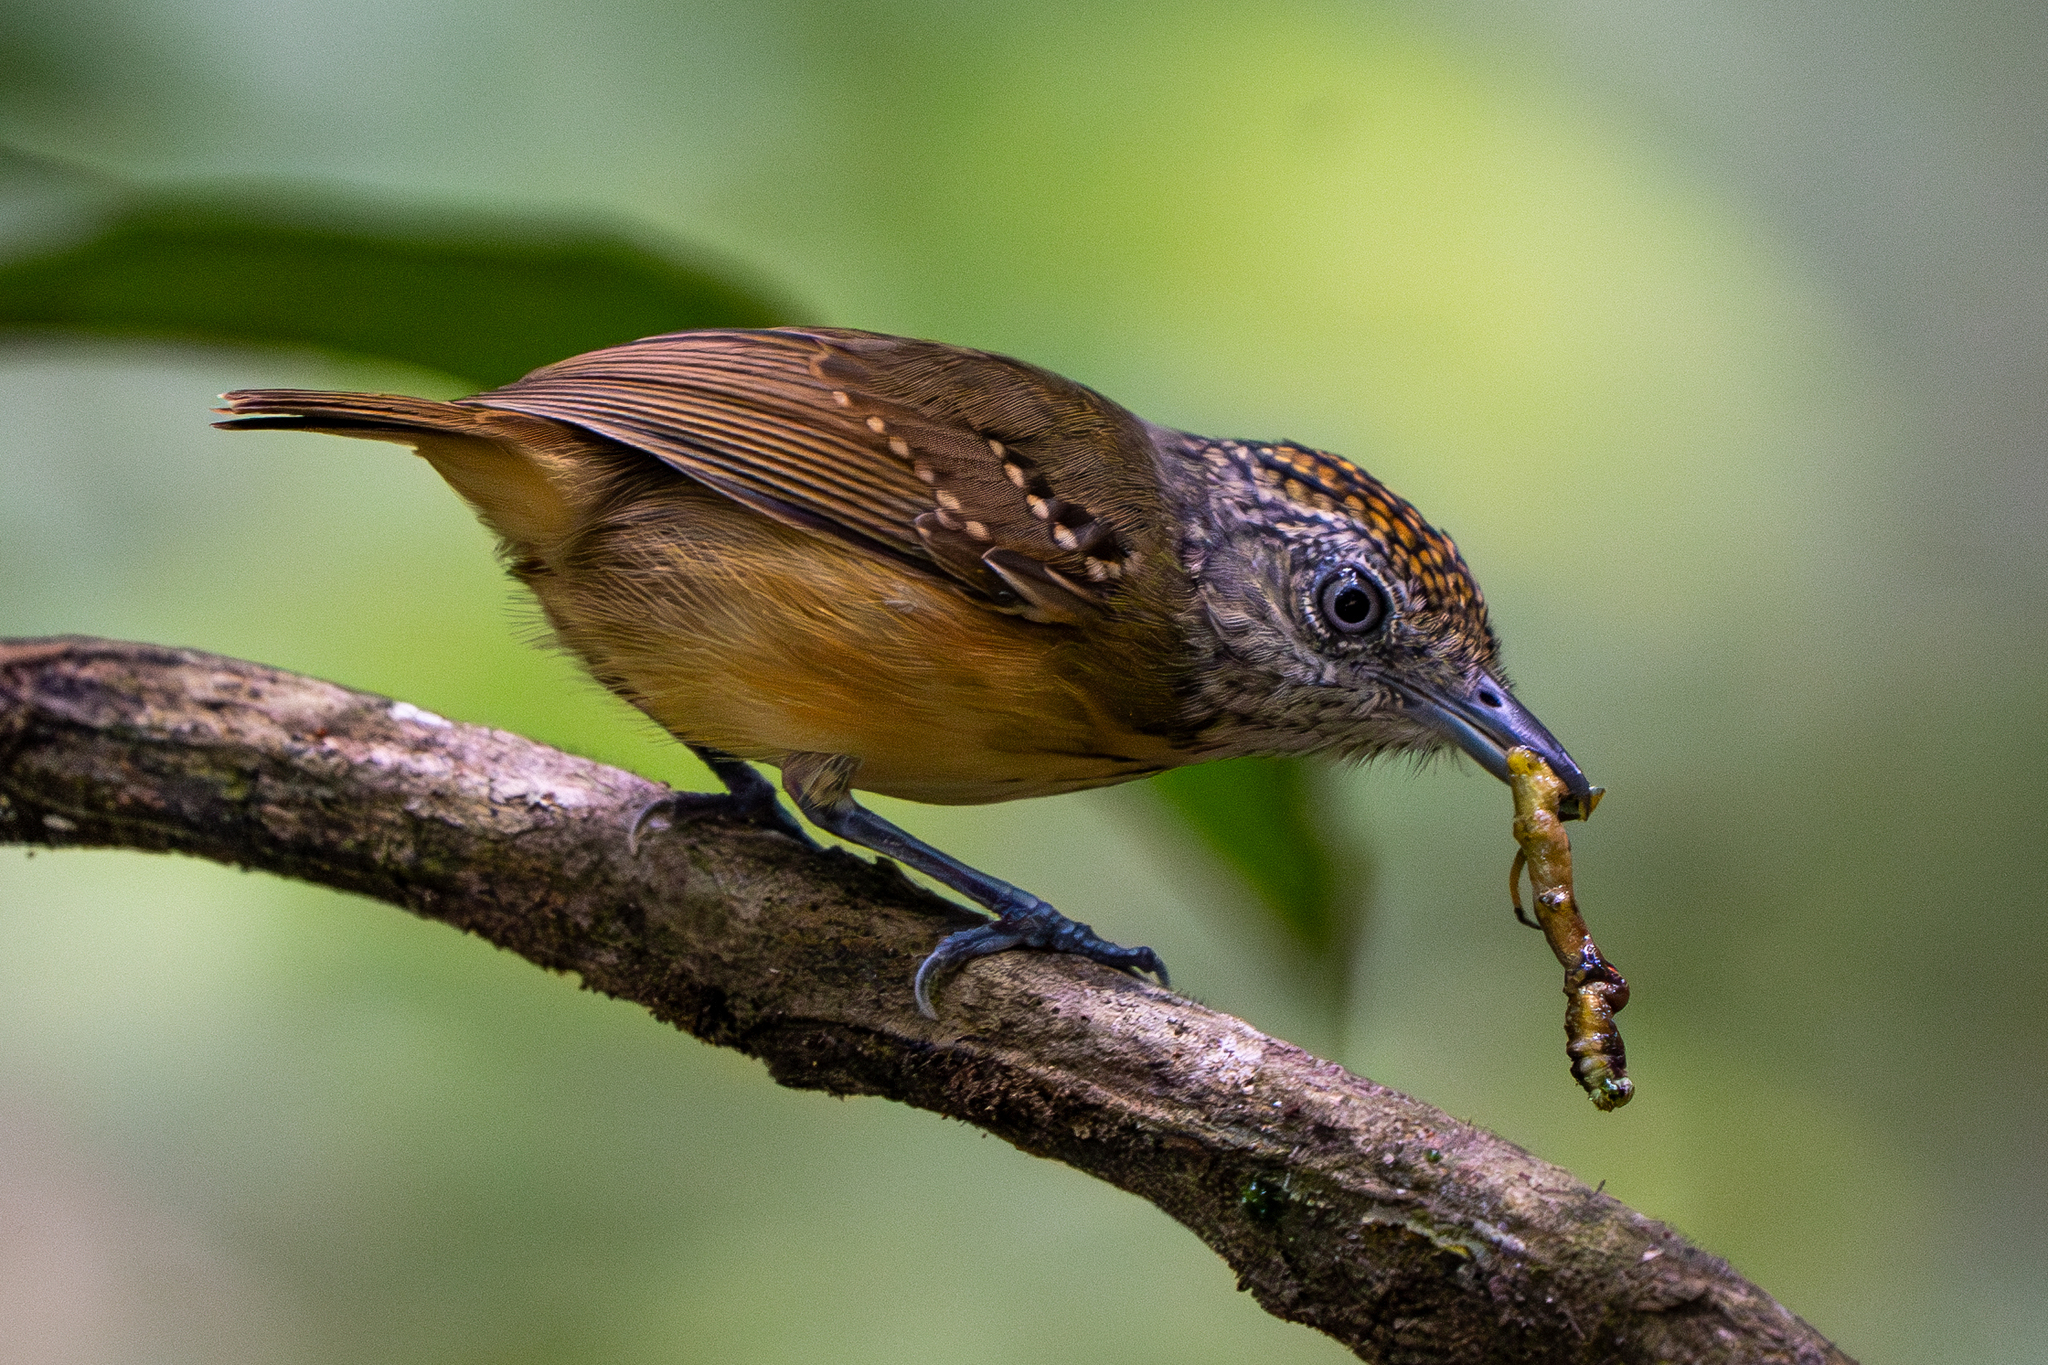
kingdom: Animalia
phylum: Chordata
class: Aves
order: Passeriformes
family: Thamnophilidae
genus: Dysithamnus
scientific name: Dysithamnus puncticeps
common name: Spot-crowned antvireo
